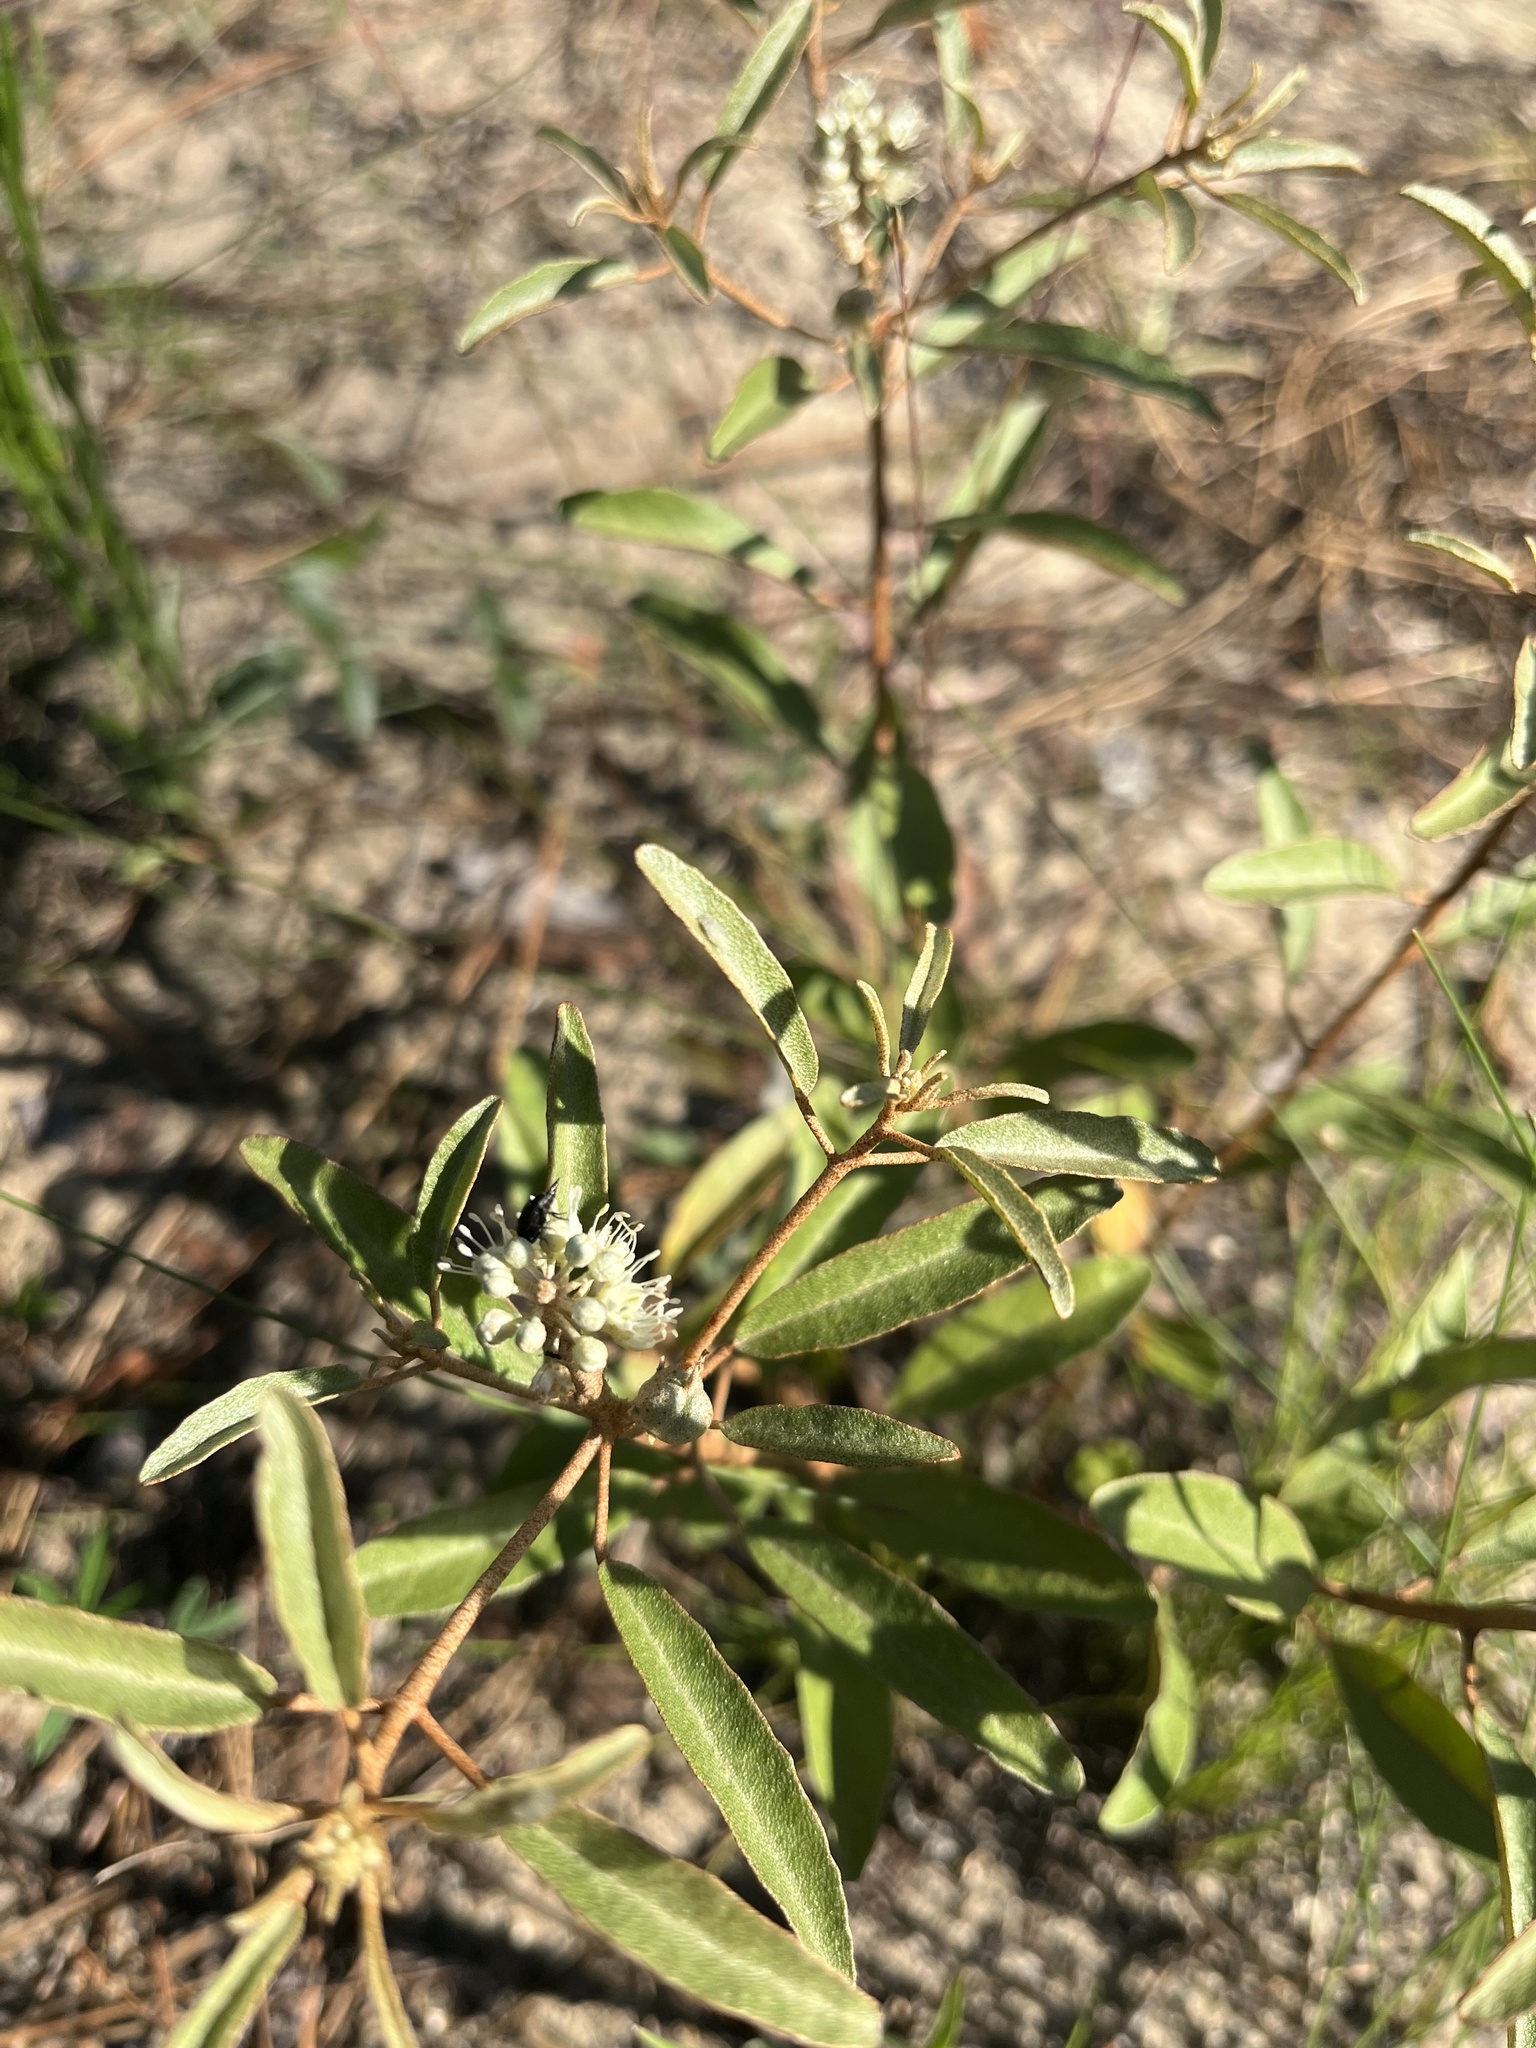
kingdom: Plantae
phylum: Tracheophyta
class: Magnoliopsida
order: Malpighiales
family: Euphorbiaceae
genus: Croton
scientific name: Croton argyranthemus
